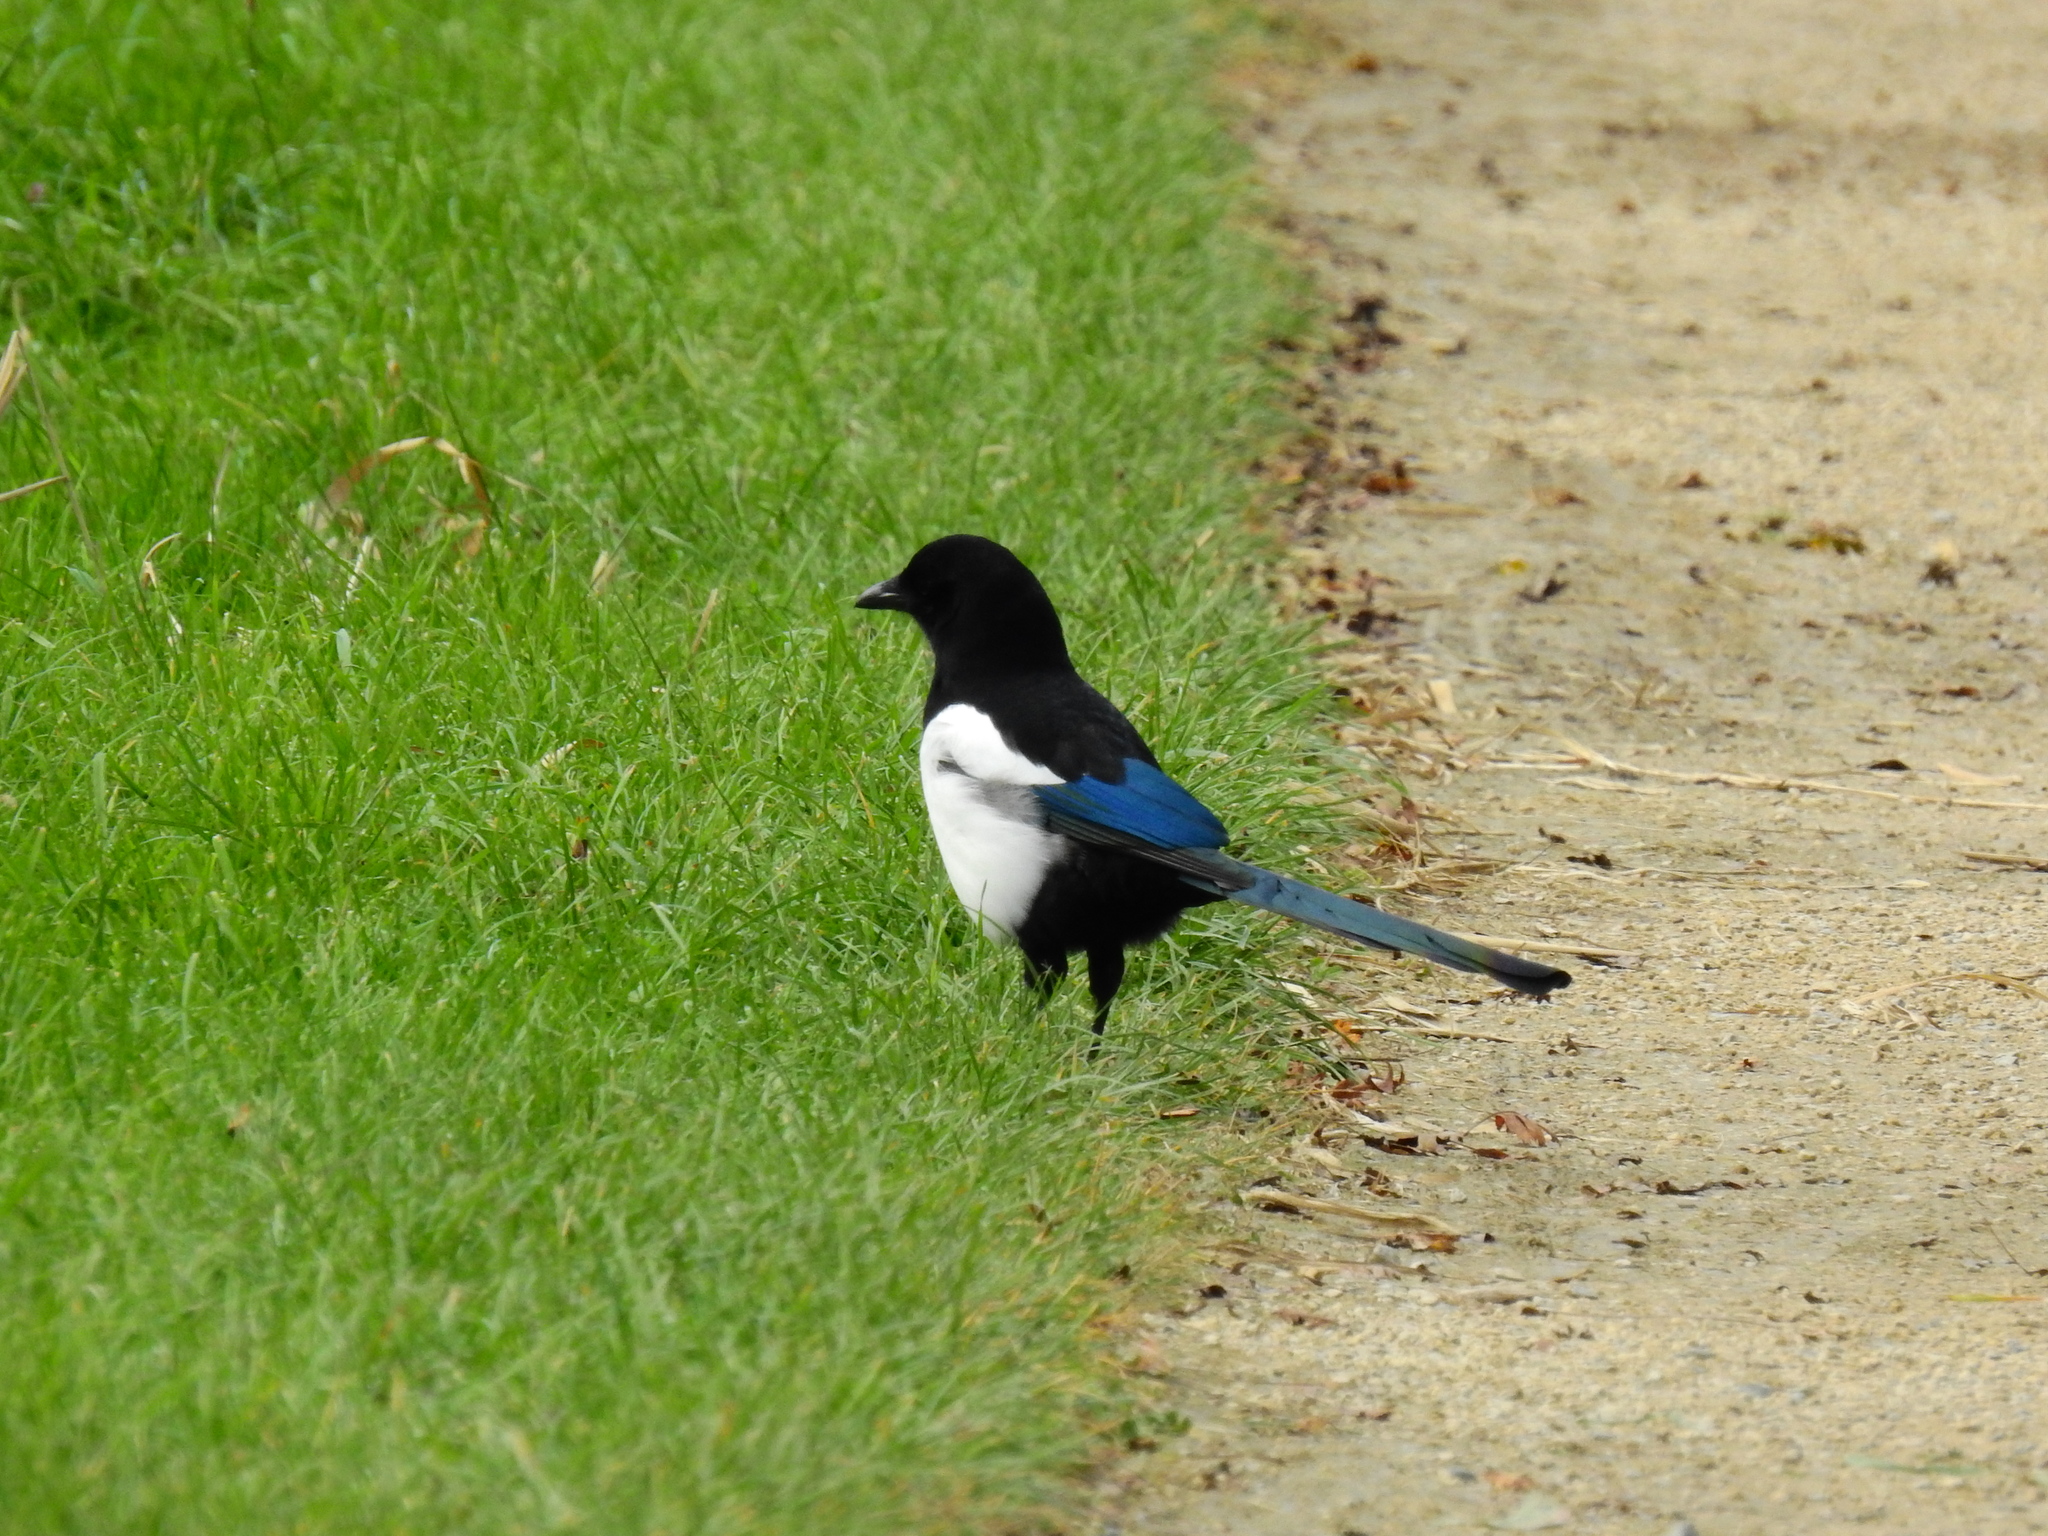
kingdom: Animalia
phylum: Chordata
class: Aves
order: Passeriformes
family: Corvidae
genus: Pica
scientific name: Pica pica
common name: Eurasian magpie
